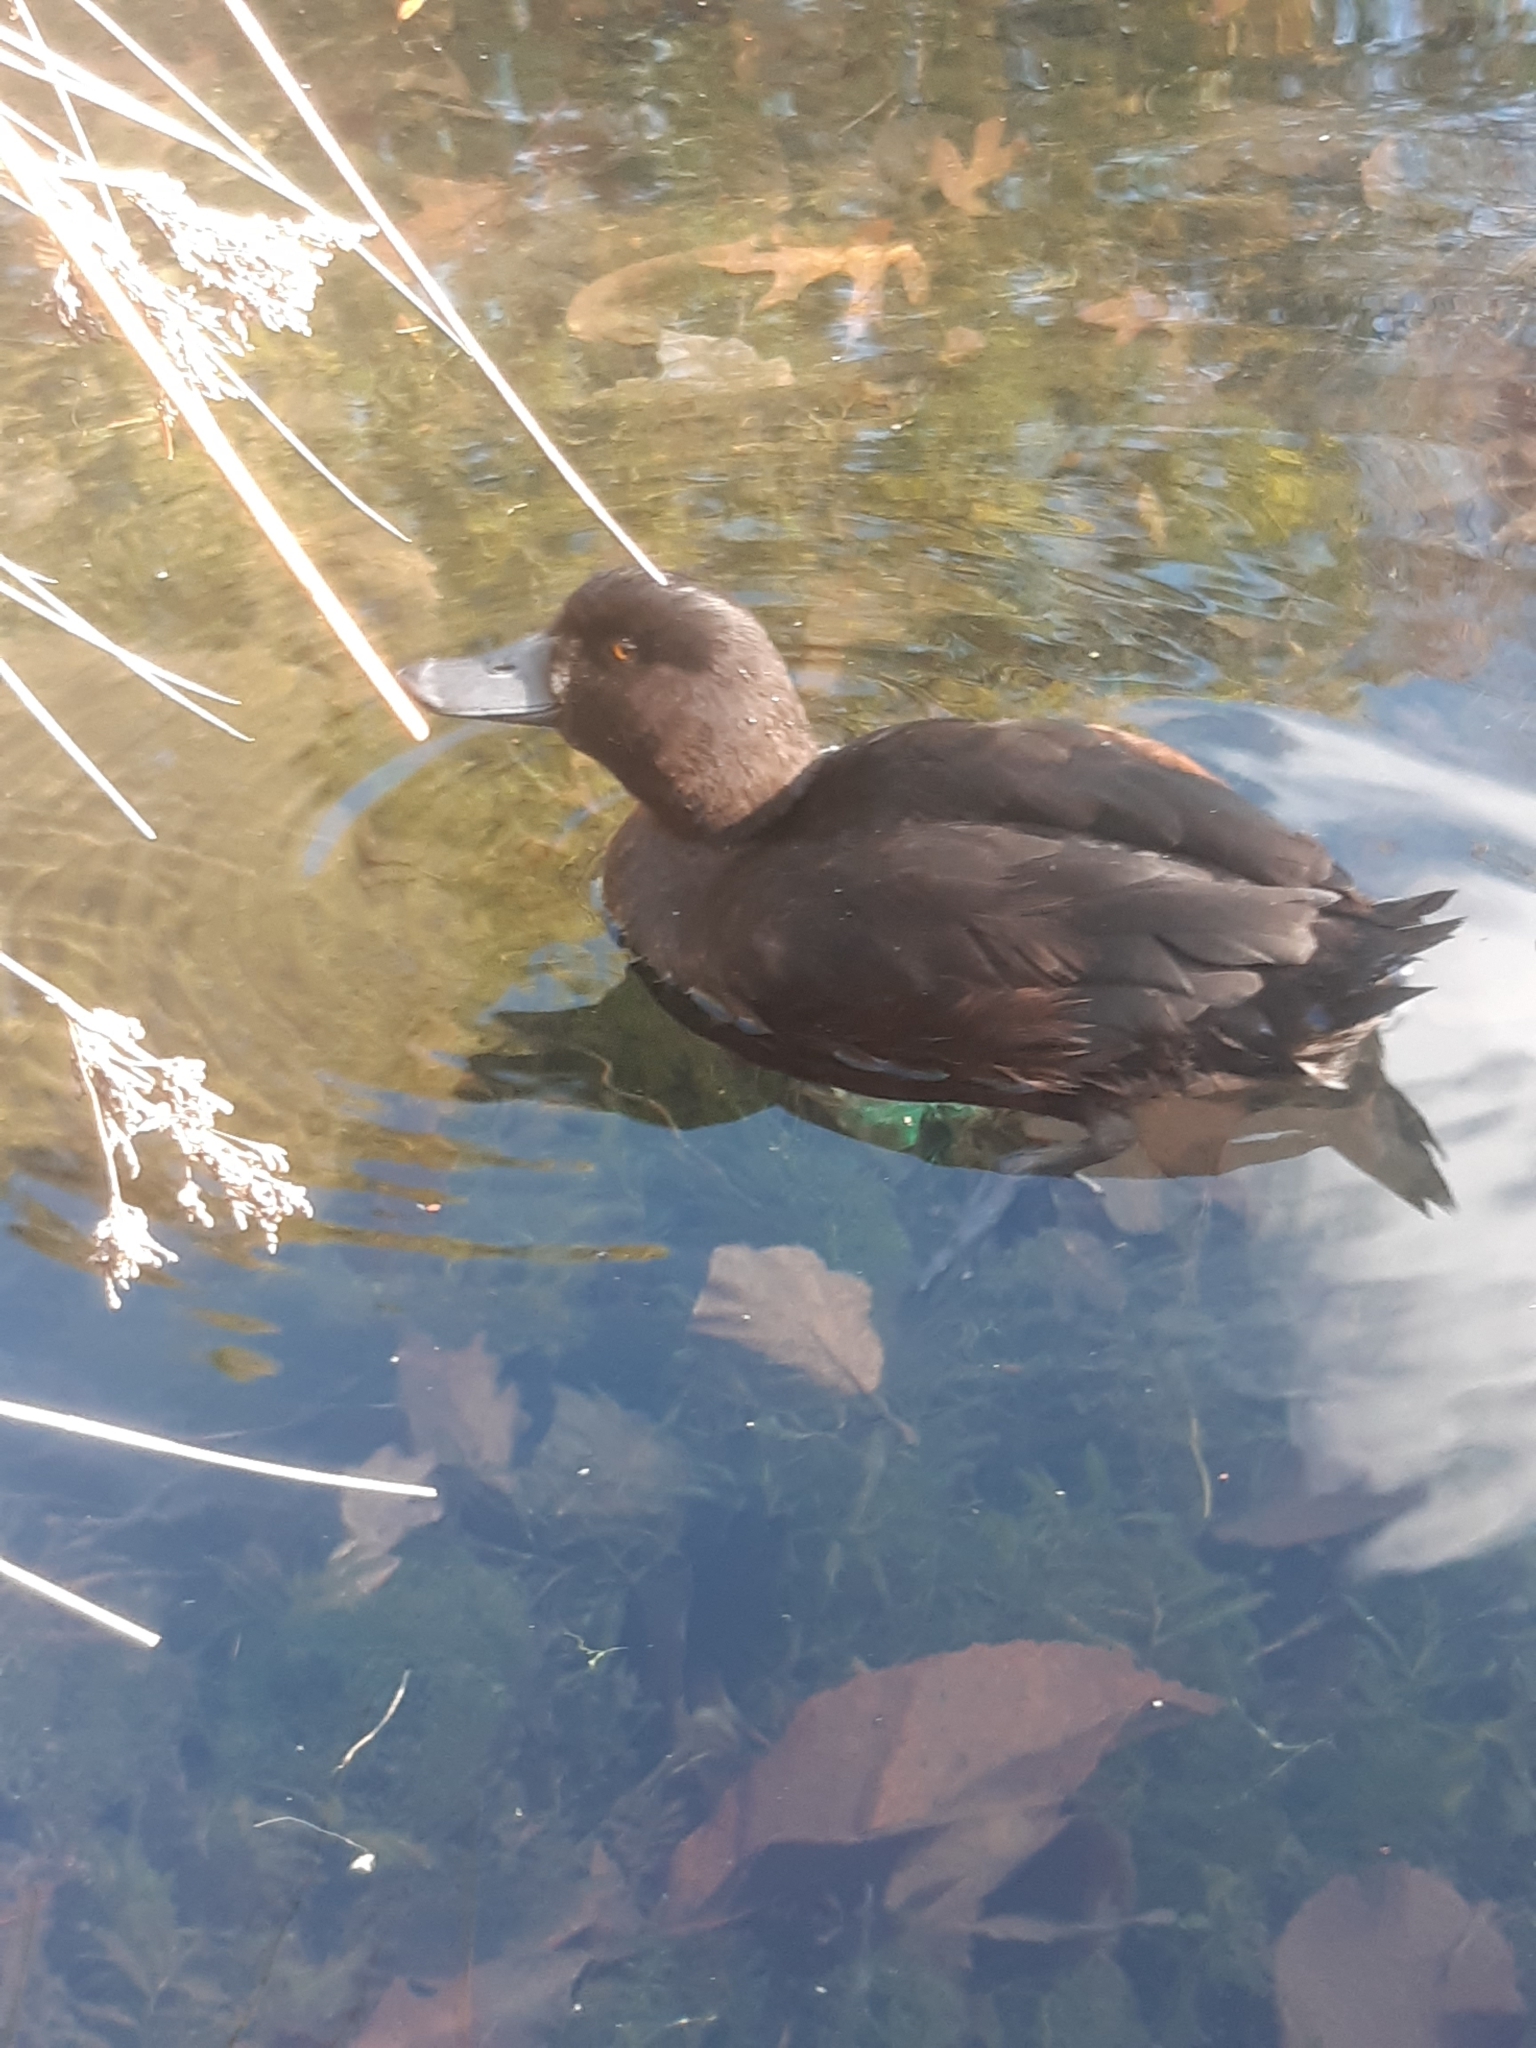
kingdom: Animalia
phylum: Chordata
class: Aves
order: Anseriformes
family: Anatidae
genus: Aythya
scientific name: Aythya novaeseelandiae
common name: New zealand scaup
